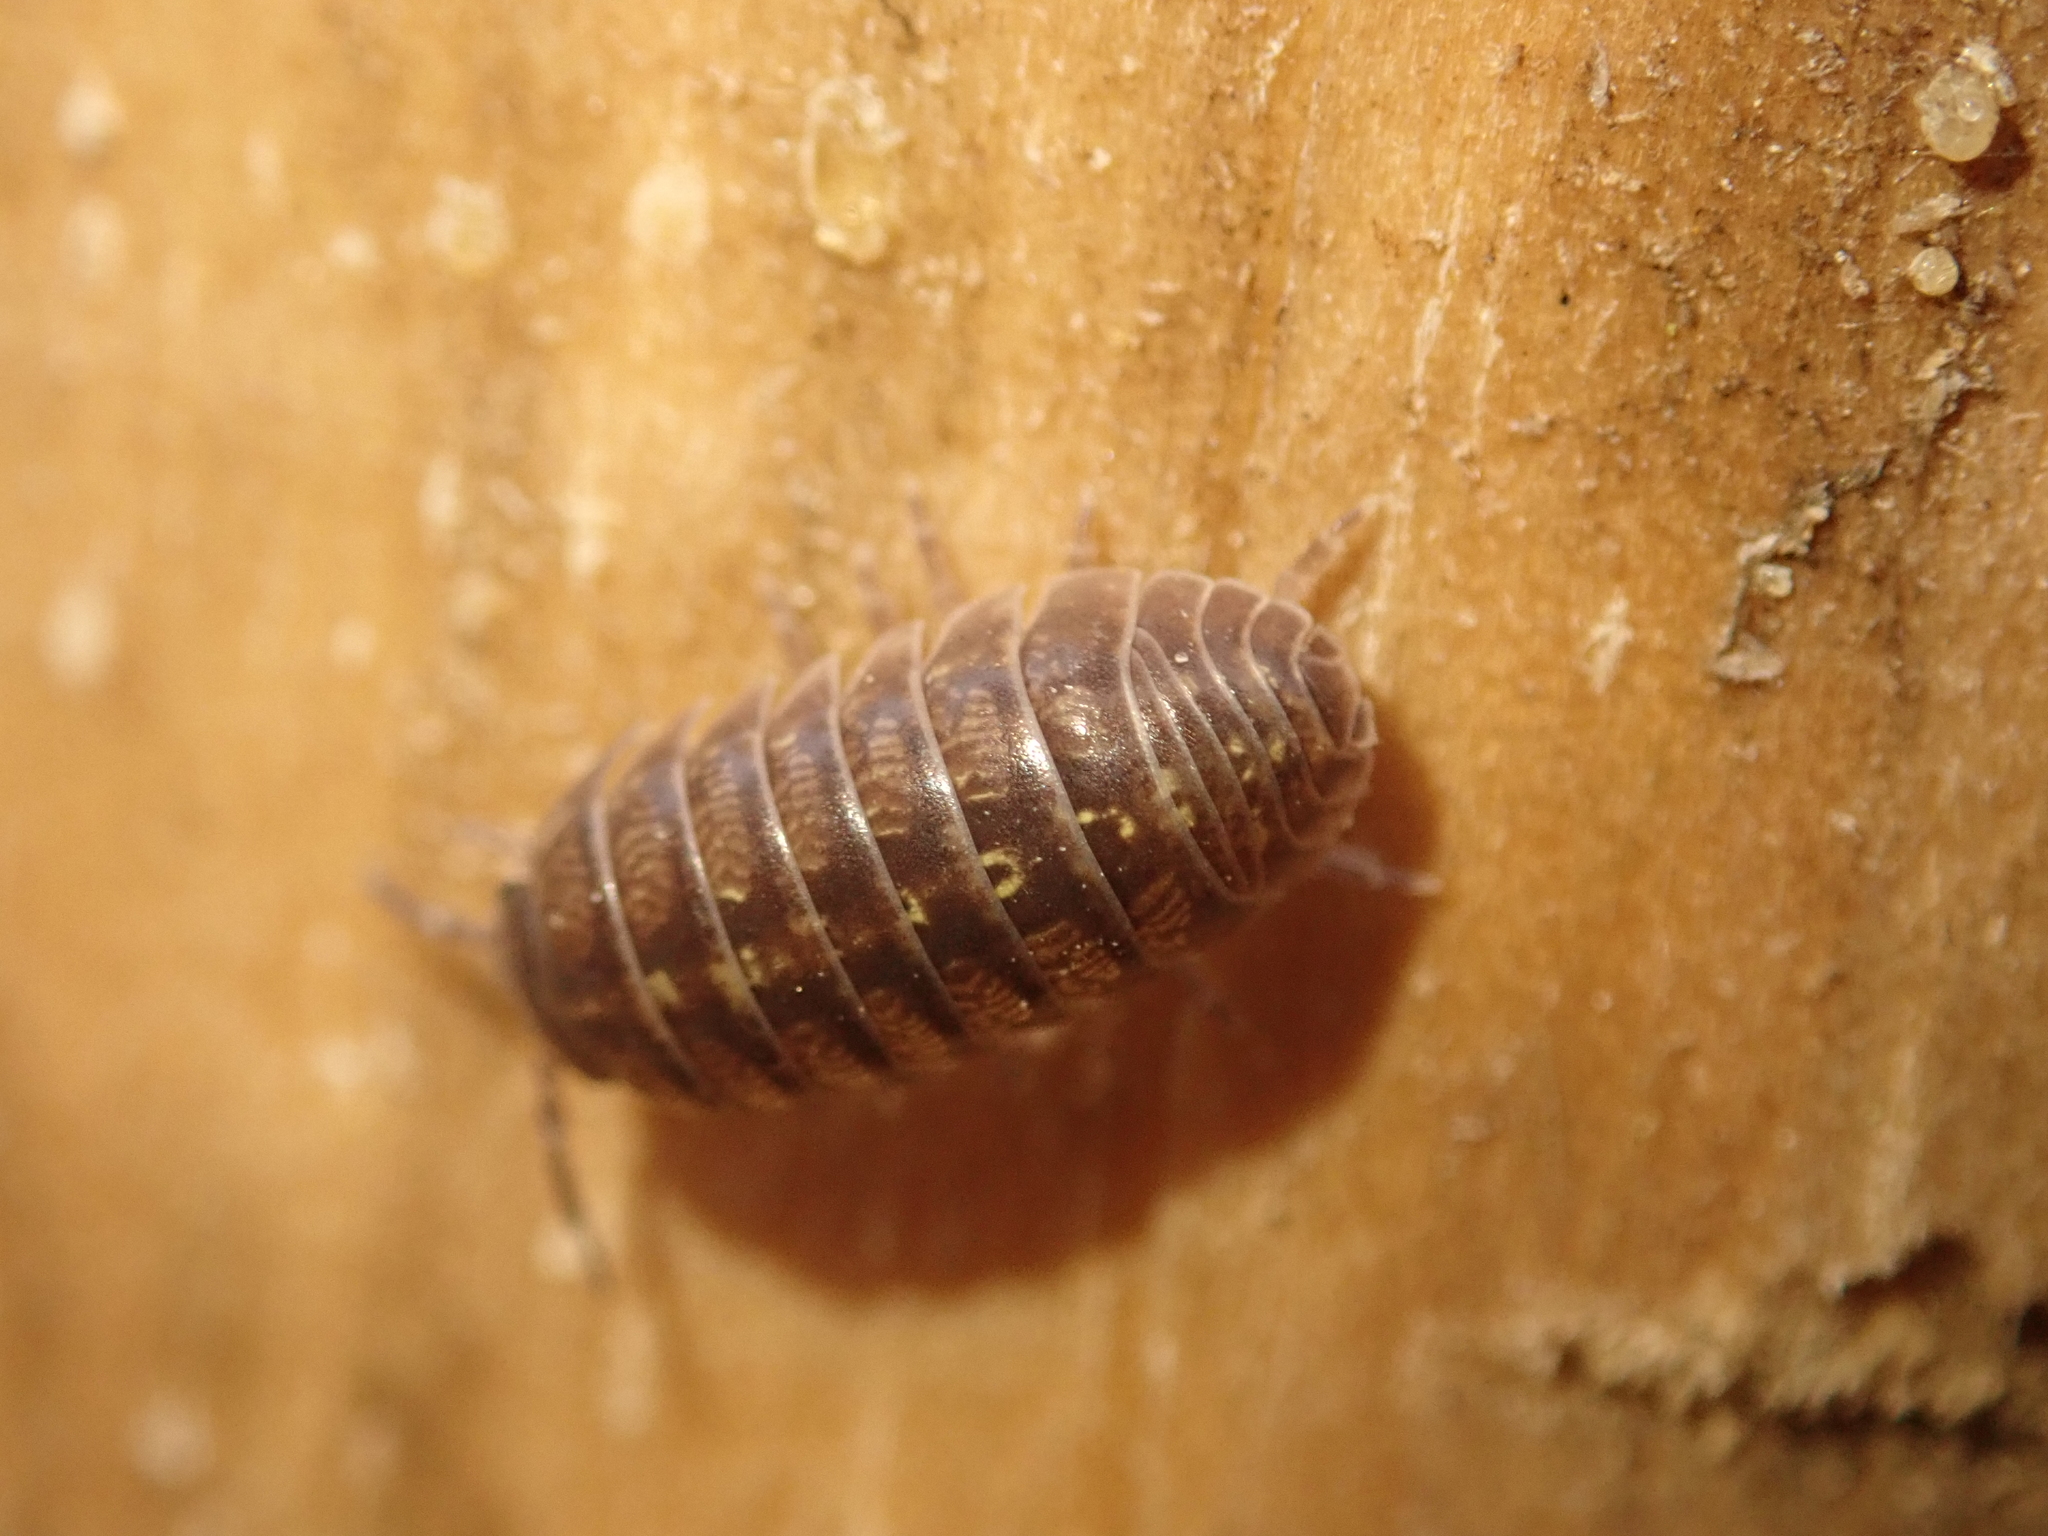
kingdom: Animalia
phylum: Arthropoda
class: Malacostraca
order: Isopoda
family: Armadillidiidae
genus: Armadillidium
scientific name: Armadillidium vulgare
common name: Common pill woodlouse
